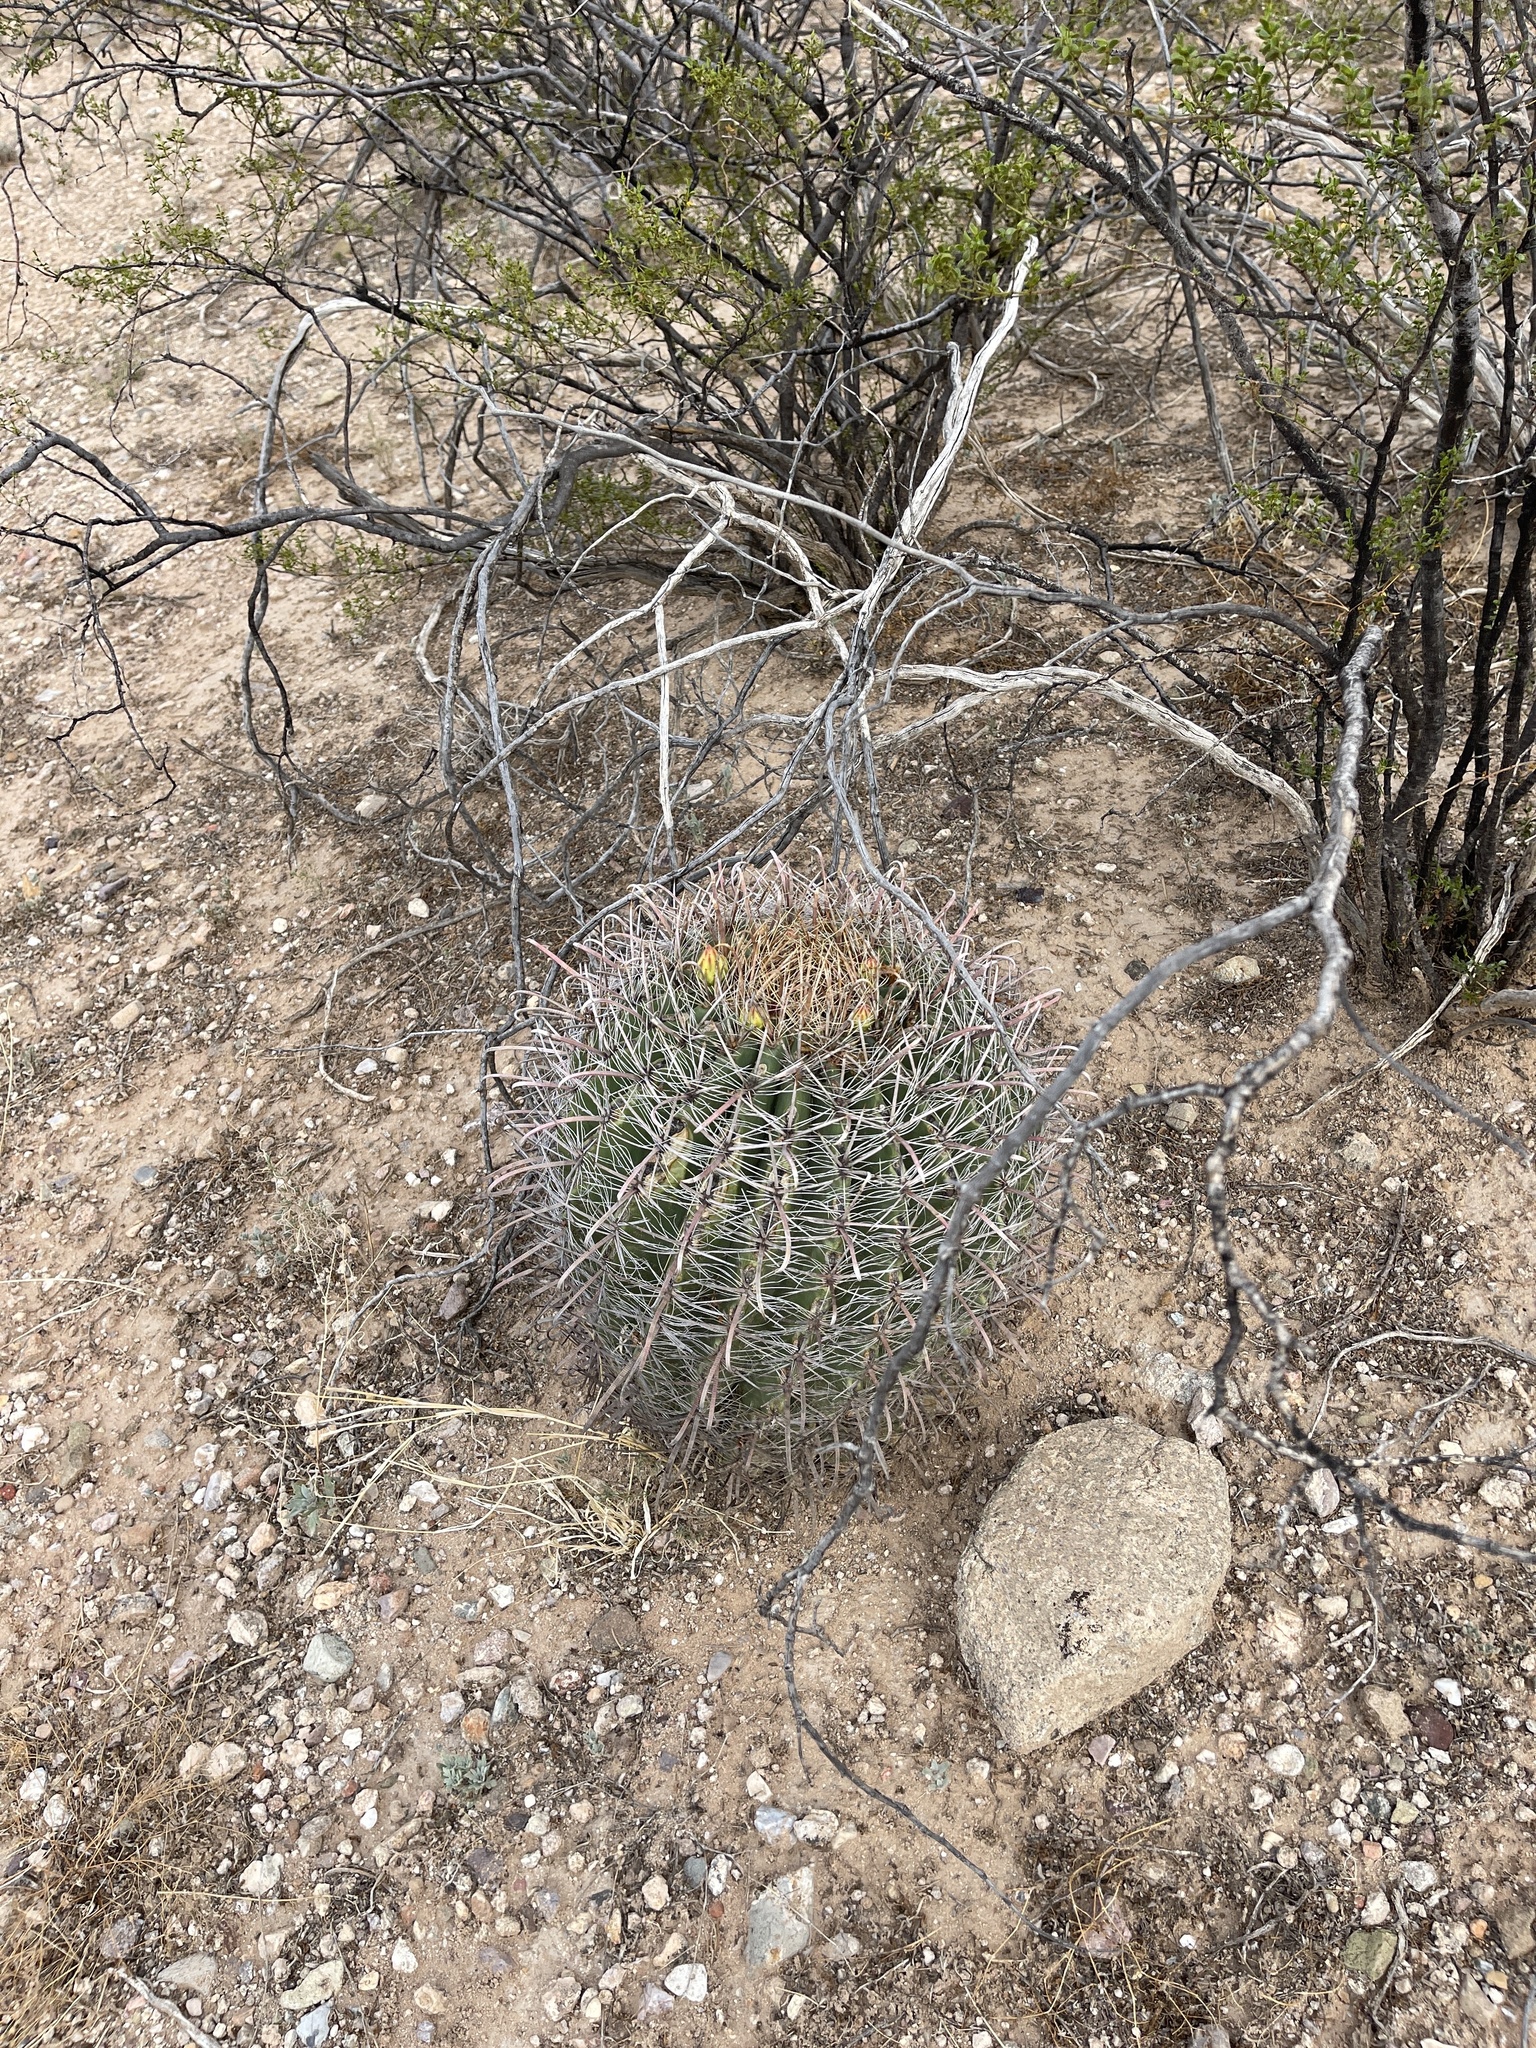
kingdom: Plantae
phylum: Tracheophyta
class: Magnoliopsida
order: Caryophyllales
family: Cactaceae
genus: Ferocactus
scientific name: Ferocactus wislizeni
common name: Candy barrel cactus
